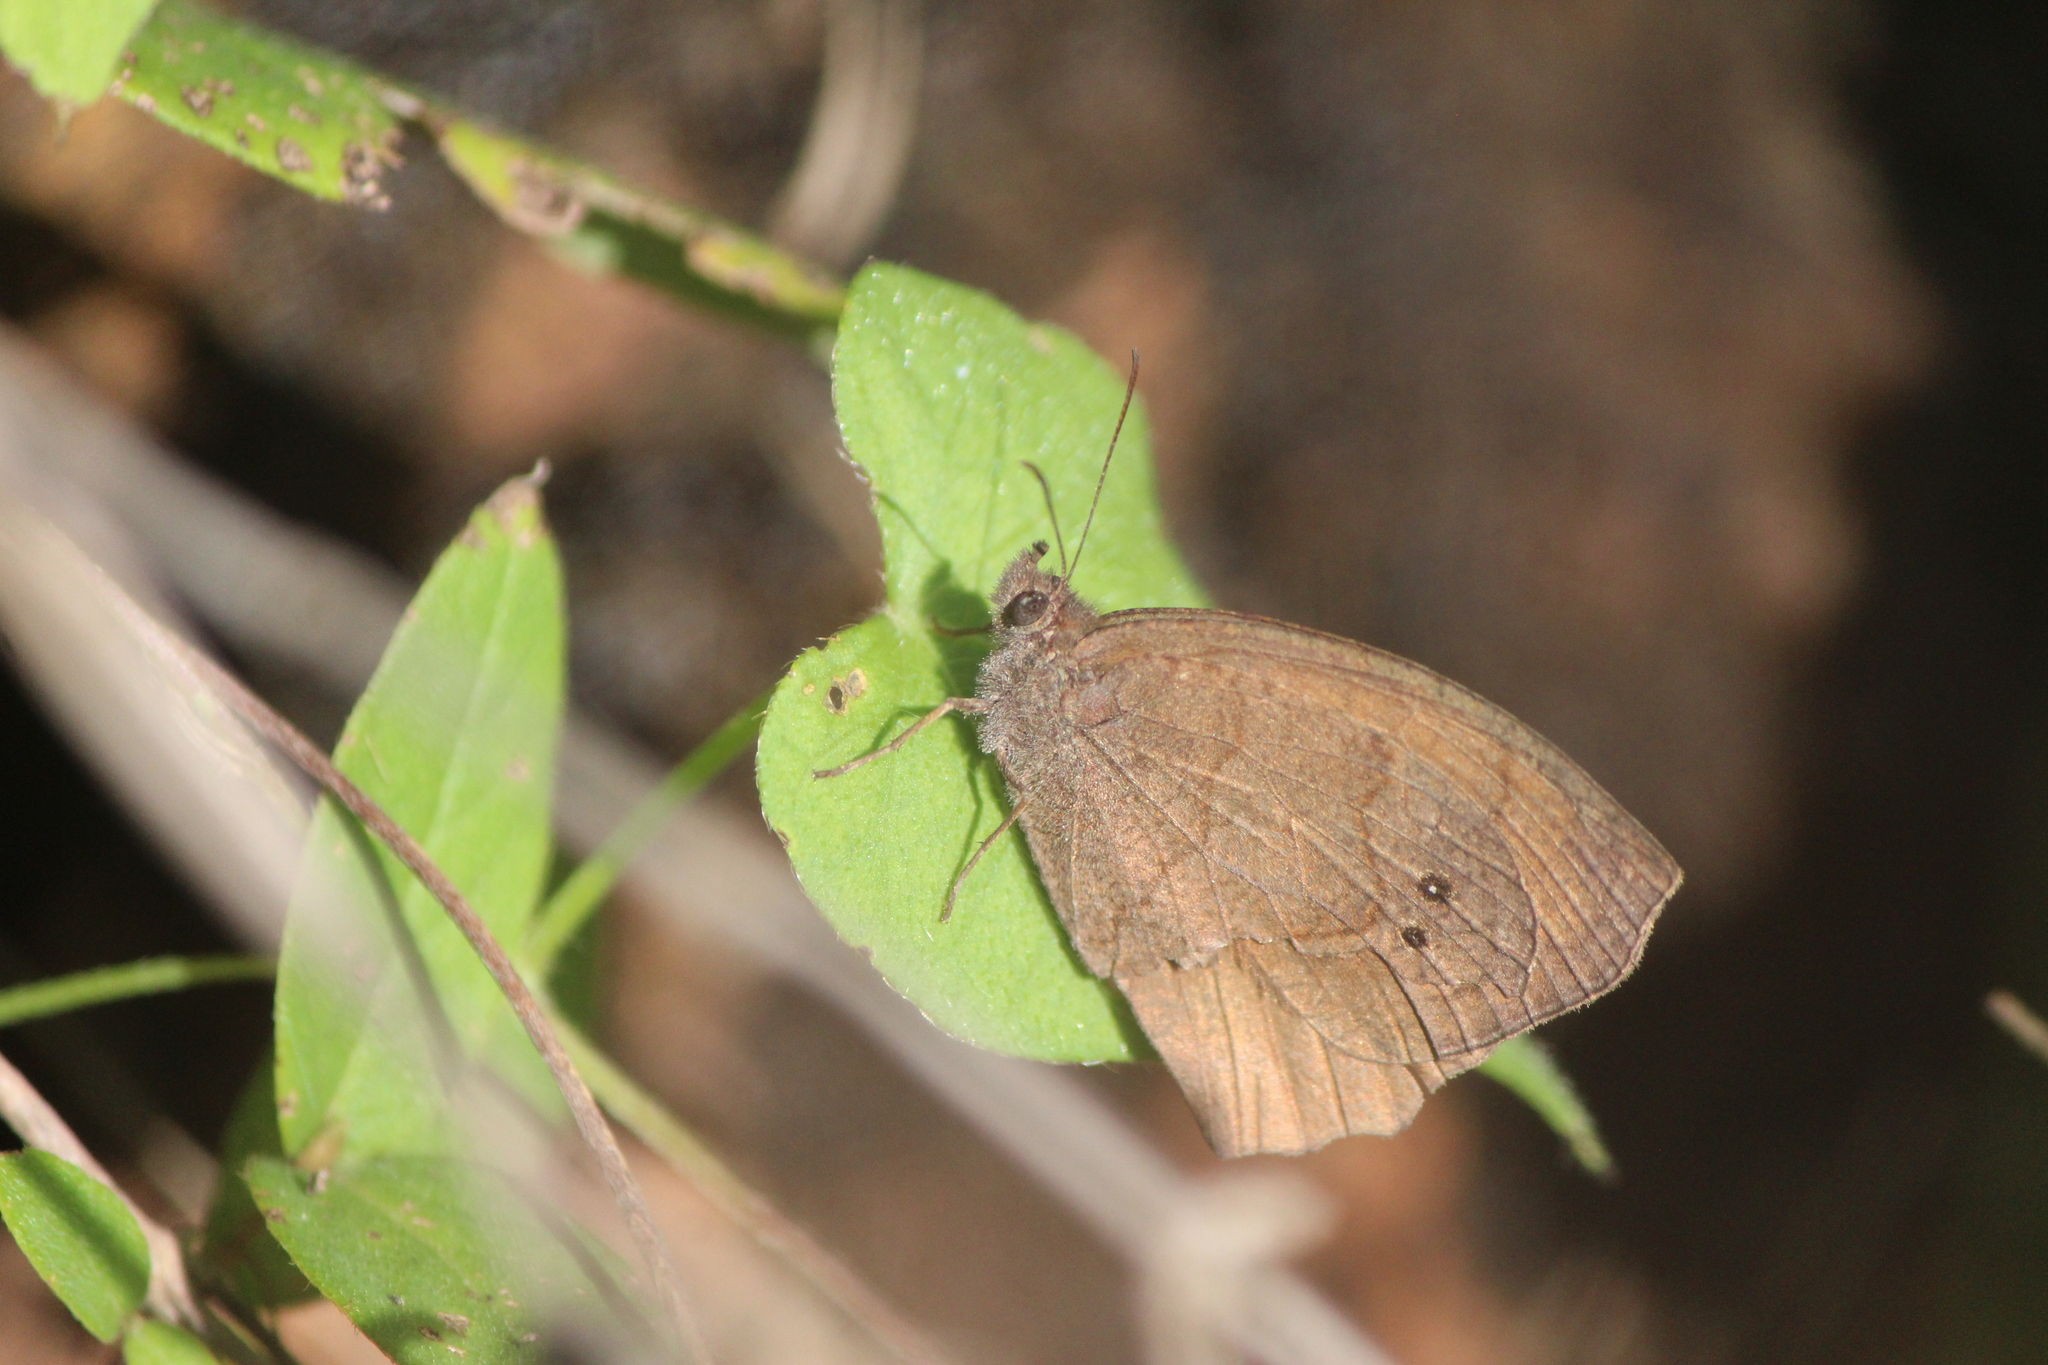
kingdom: Animalia
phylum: Arthropoda
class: Insecta
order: Lepidoptera
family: Nymphalidae
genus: Pindis
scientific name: Pindis squamistriga
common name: Variable satyr
